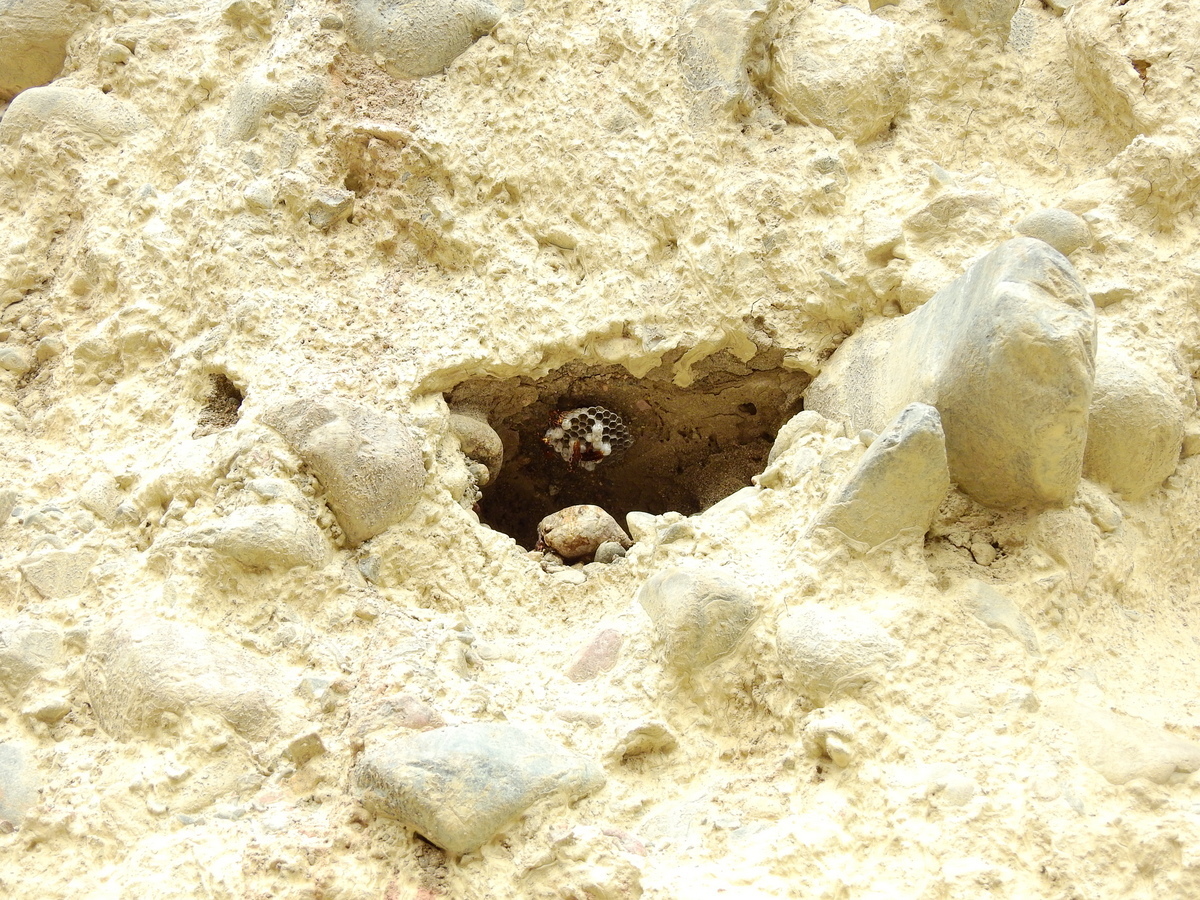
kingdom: Animalia
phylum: Arthropoda
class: Insecta
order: Hymenoptera
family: Eumenidae
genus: Polistes
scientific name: Polistes buyssoni
